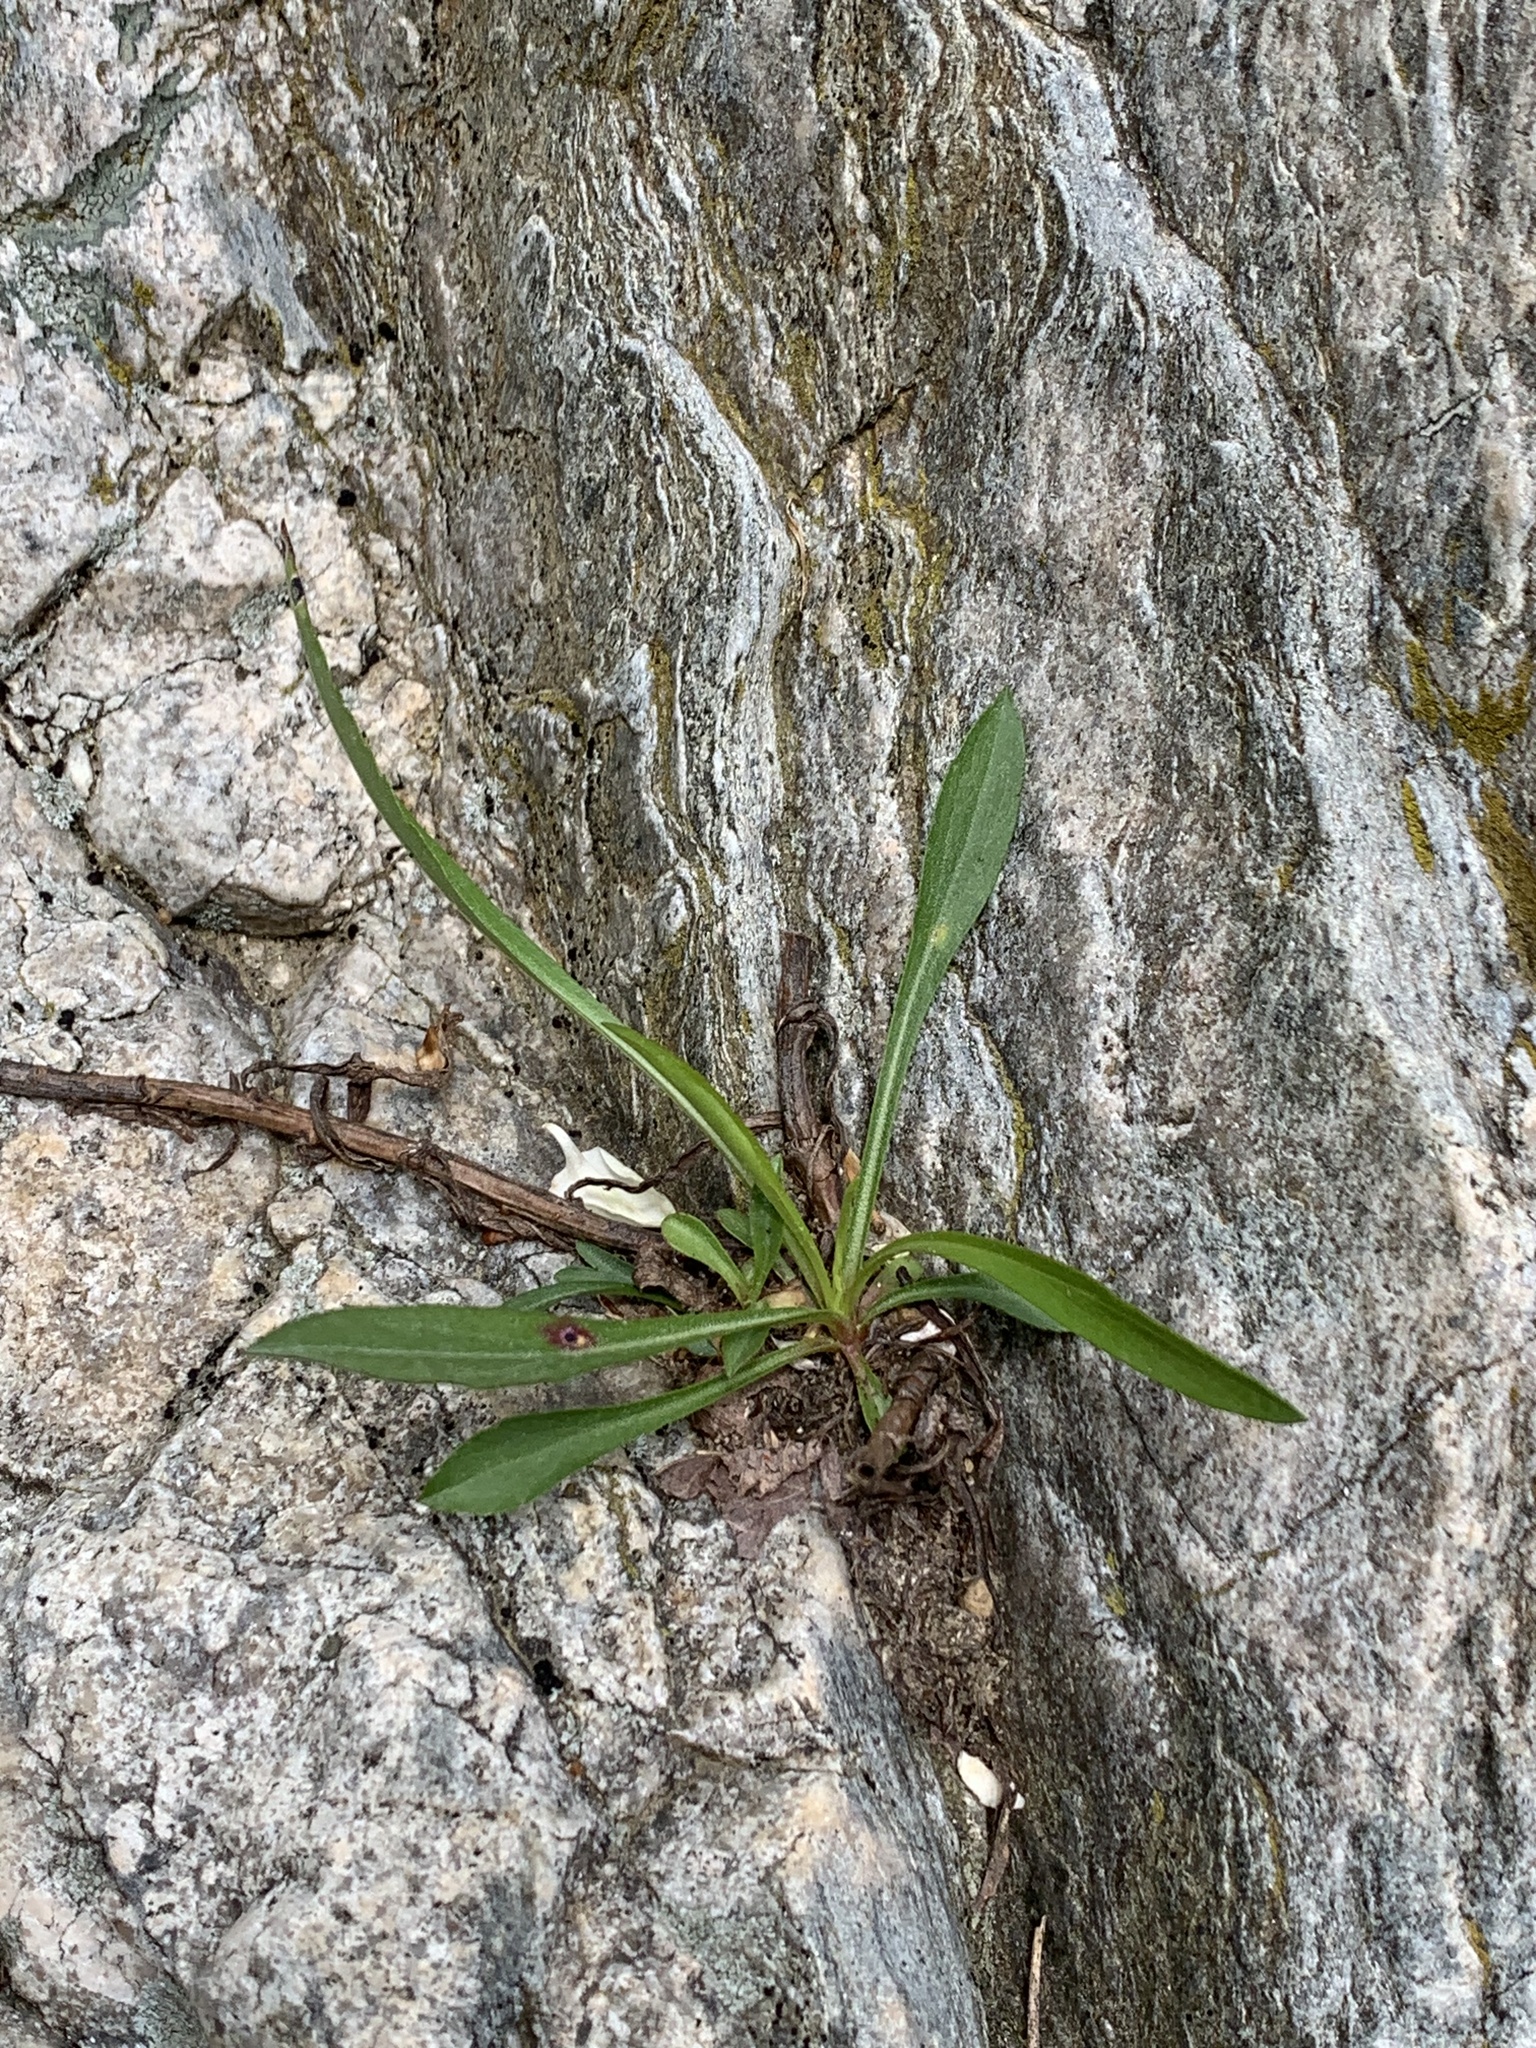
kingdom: Plantae
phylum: Tracheophyta
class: Magnoliopsida
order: Asterales
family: Asteraceae
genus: Solidago
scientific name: Solidago racemosa
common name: Lake ontario goldenrod
